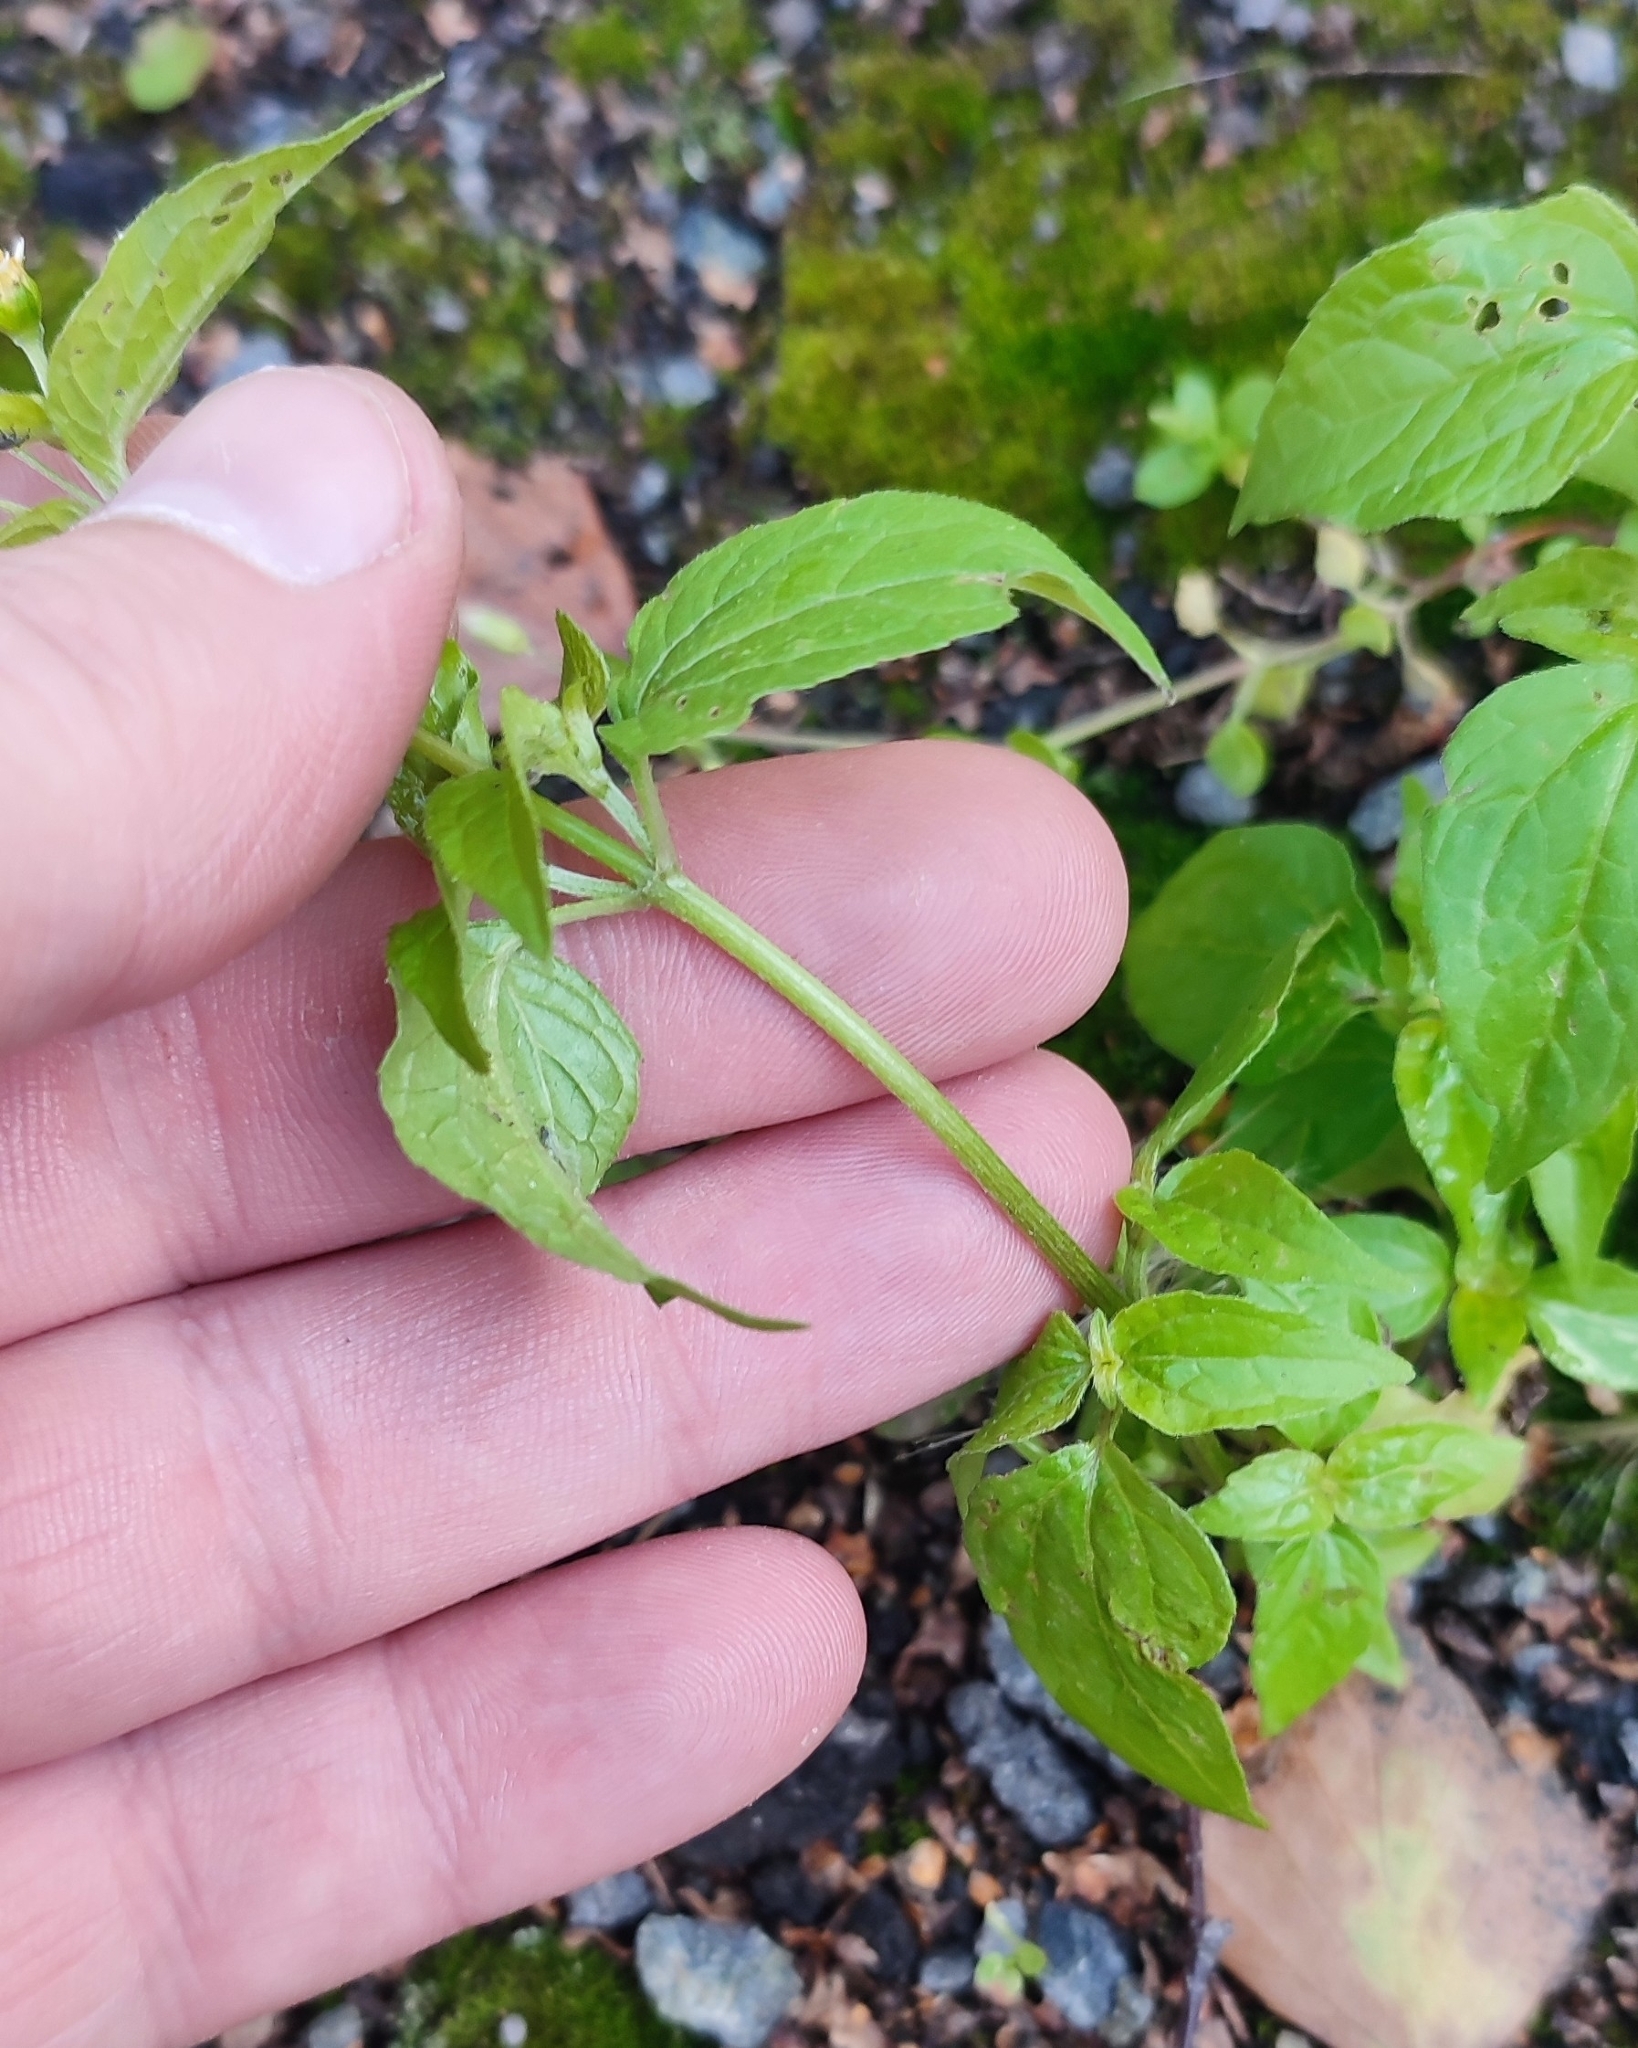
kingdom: Plantae
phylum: Tracheophyta
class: Magnoliopsida
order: Asterales
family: Asteraceae
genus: Galinsoga
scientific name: Galinsoga parviflora
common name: Gallant soldier
